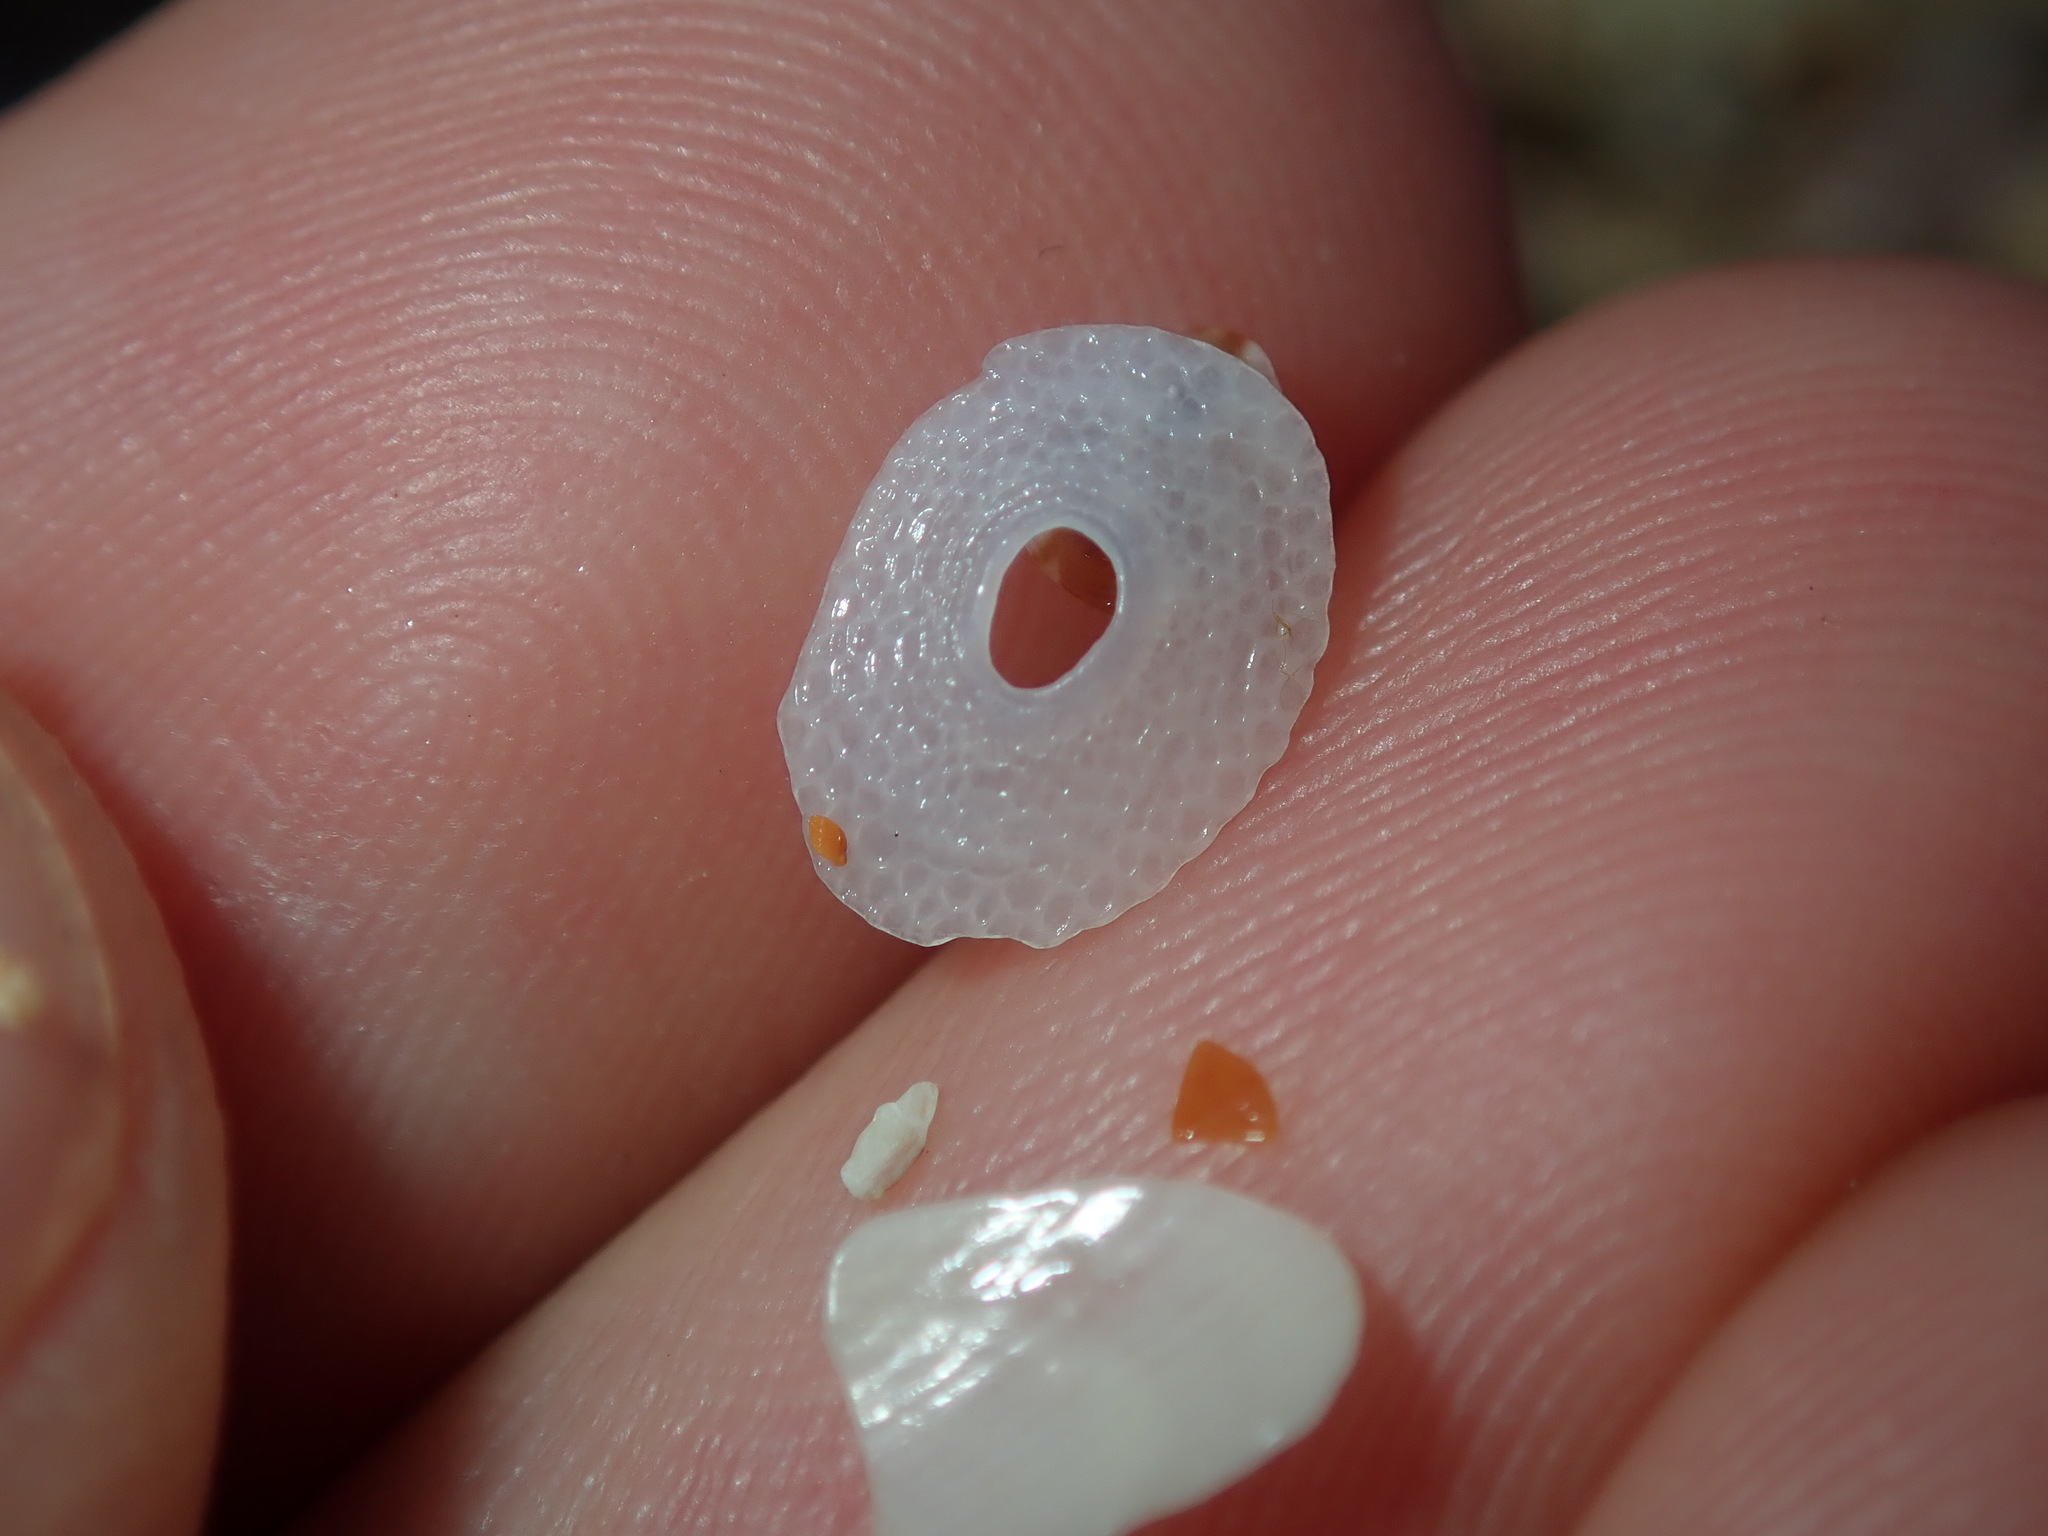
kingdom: Animalia
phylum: Mollusca
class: Gastropoda
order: Lepetellida
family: Fissurellidae
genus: Cosmetalepas
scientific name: Cosmetalepas concatenata
